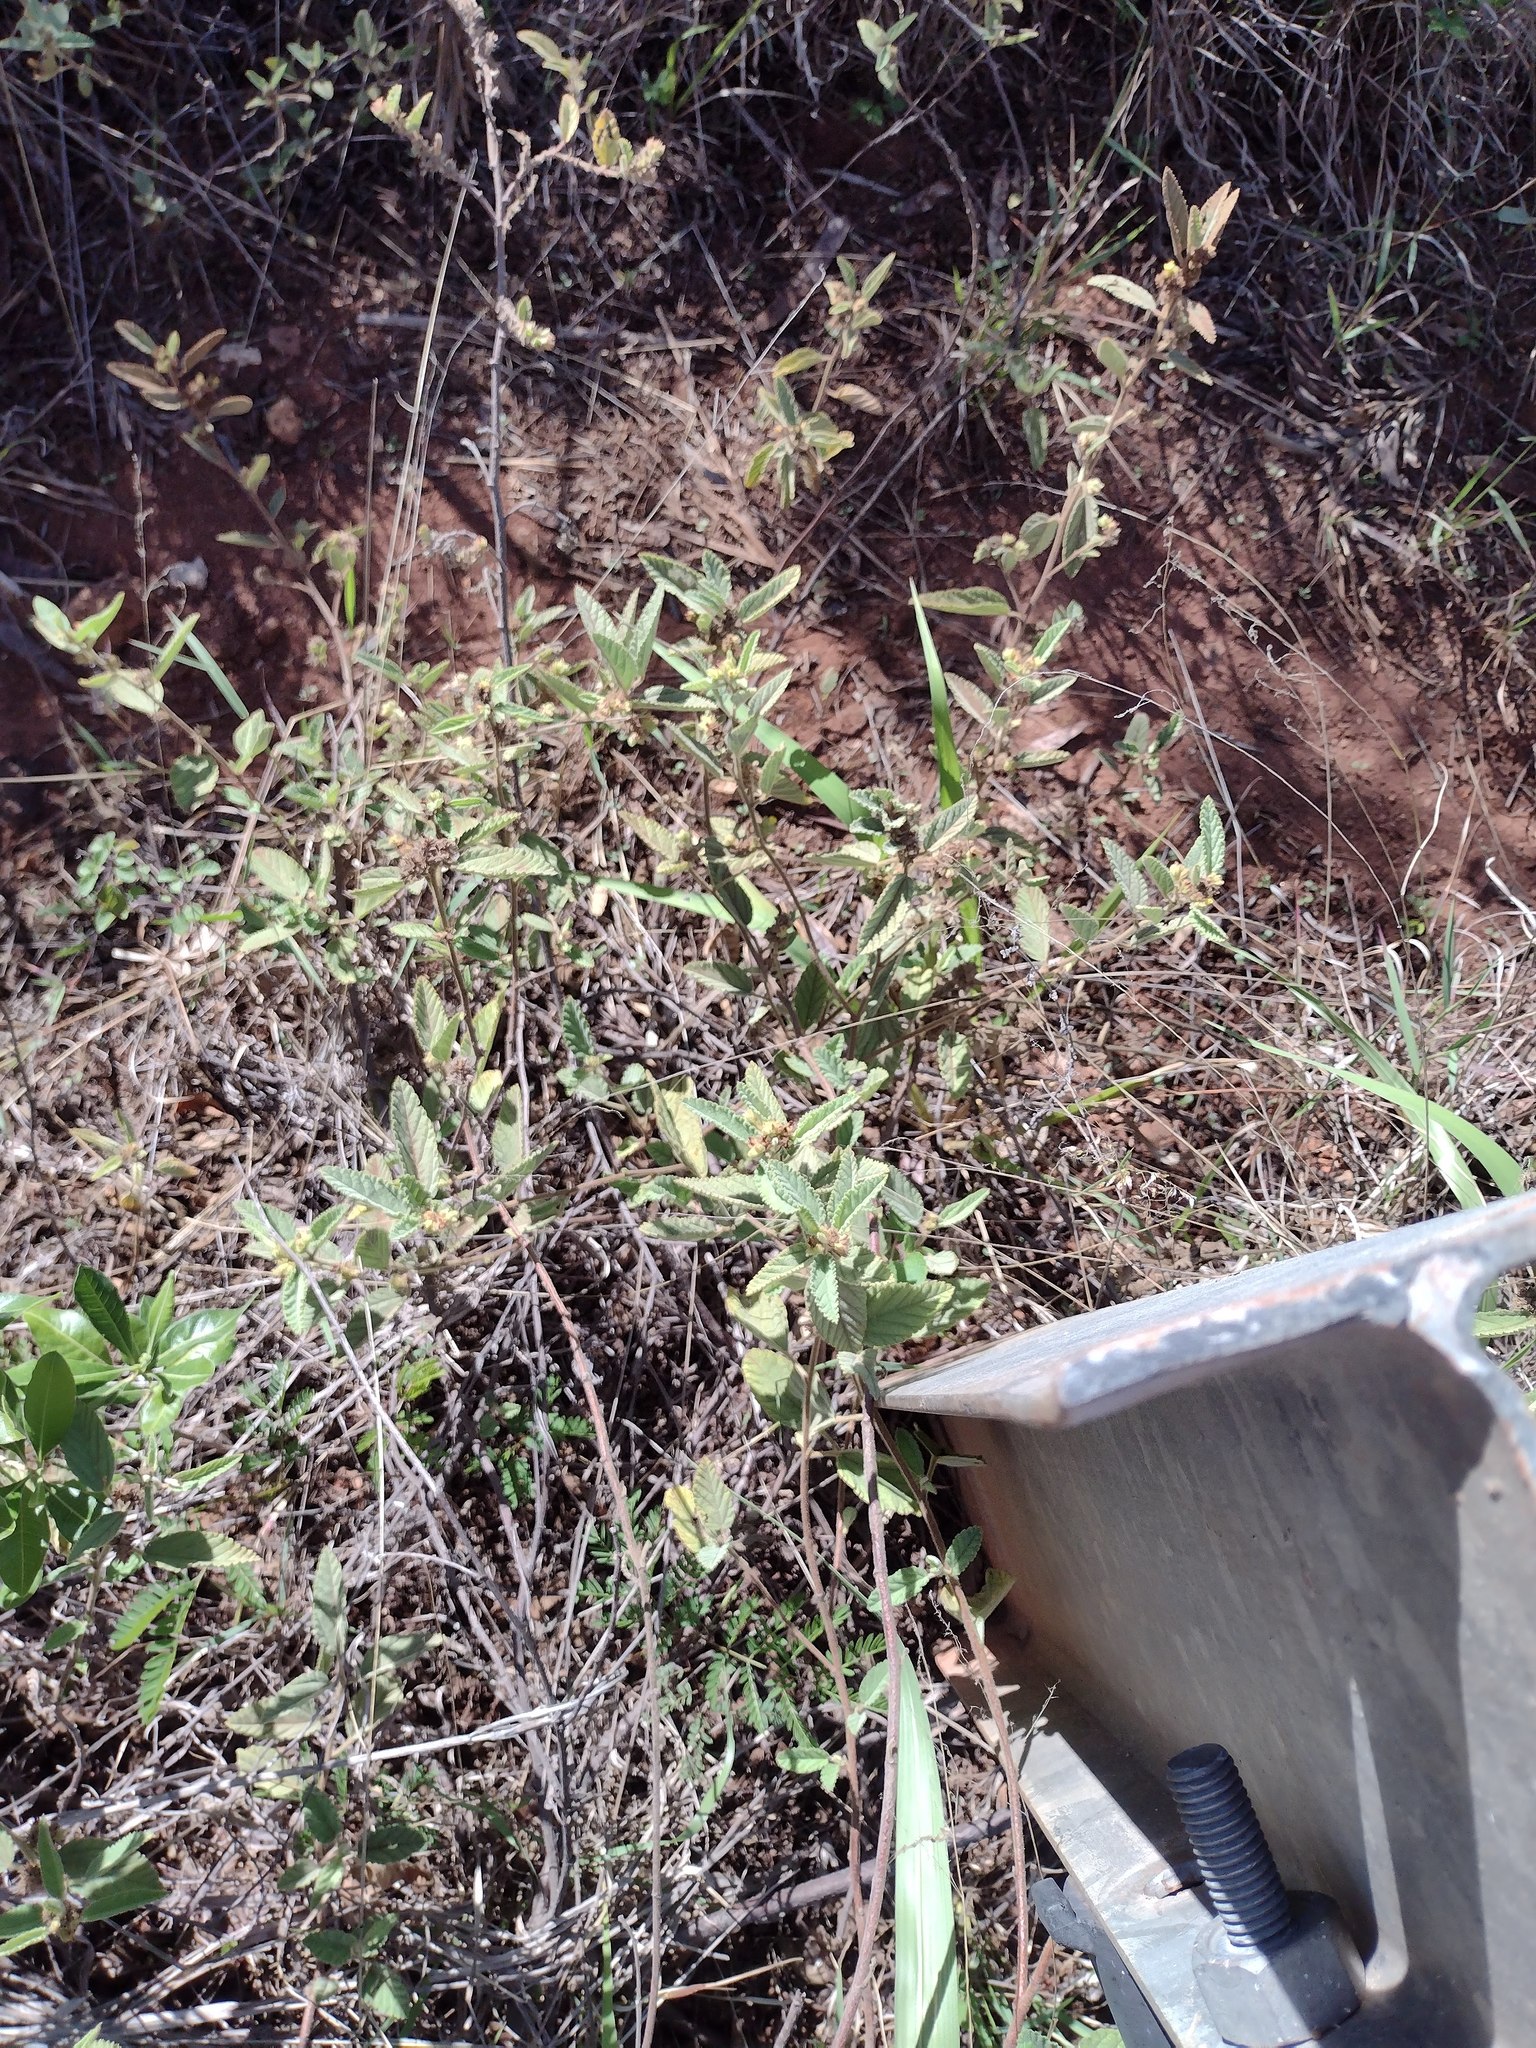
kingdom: Plantae
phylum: Tracheophyta
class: Magnoliopsida
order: Malvales
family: Malvaceae
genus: Waltheria
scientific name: Waltheria indica
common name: Leather-coat
